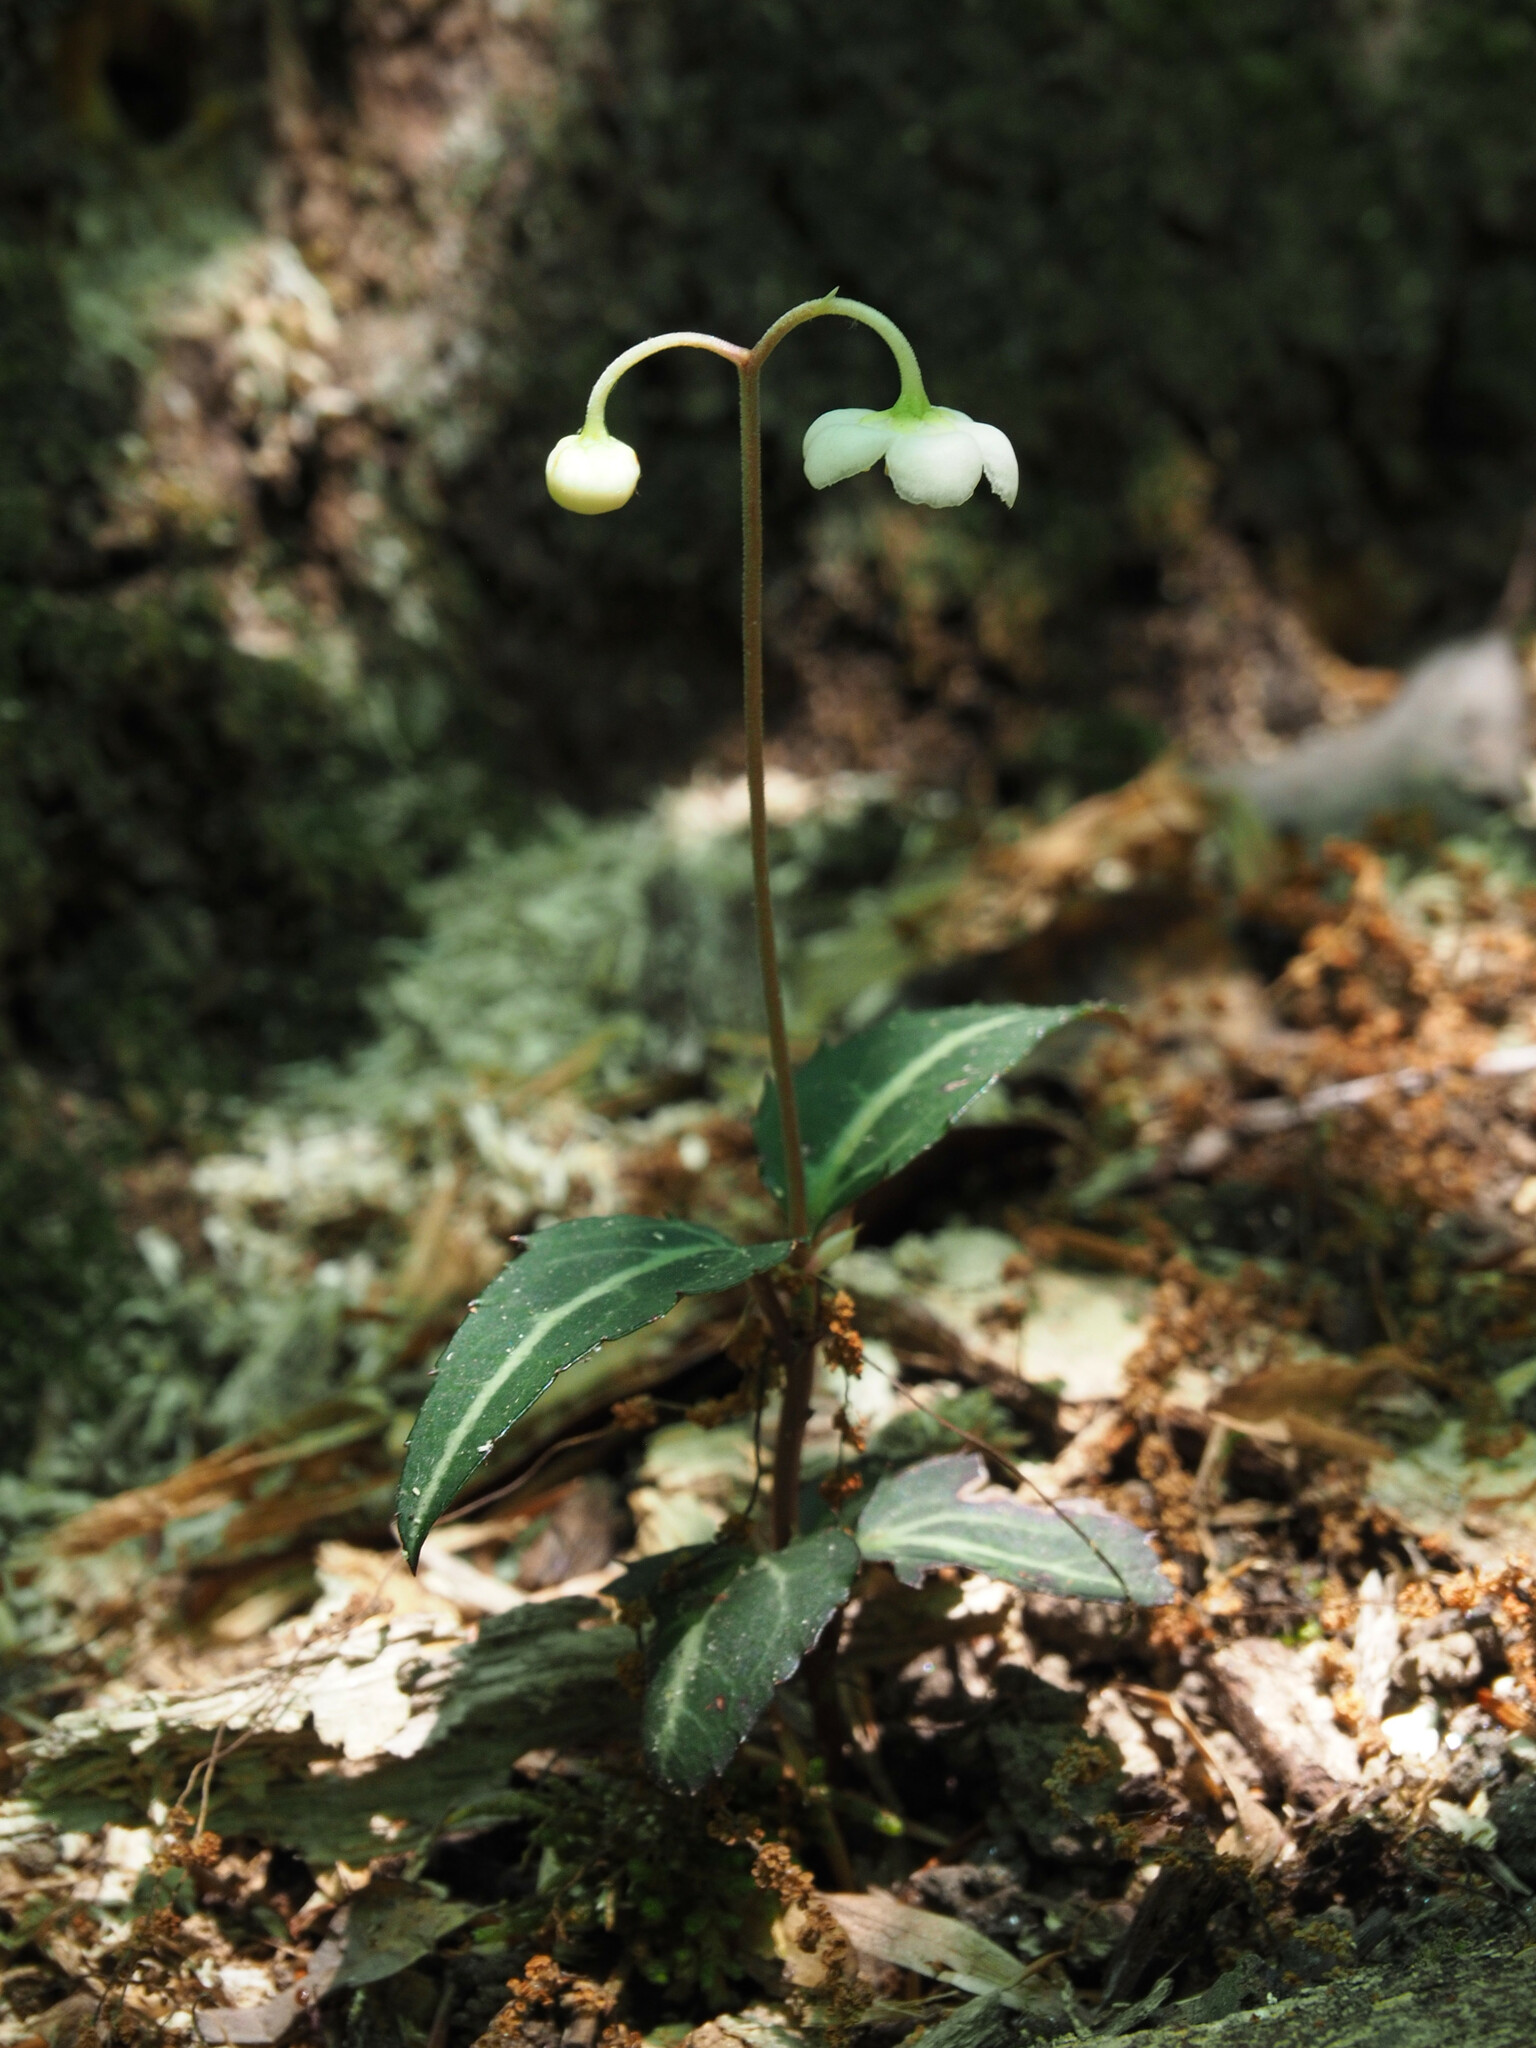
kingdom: Plantae
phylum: Tracheophyta
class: Magnoliopsida
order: Ericales
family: Ericaceae
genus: Chimaphila
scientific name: Chimaphila maculata
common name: Spotted pipsissewa
